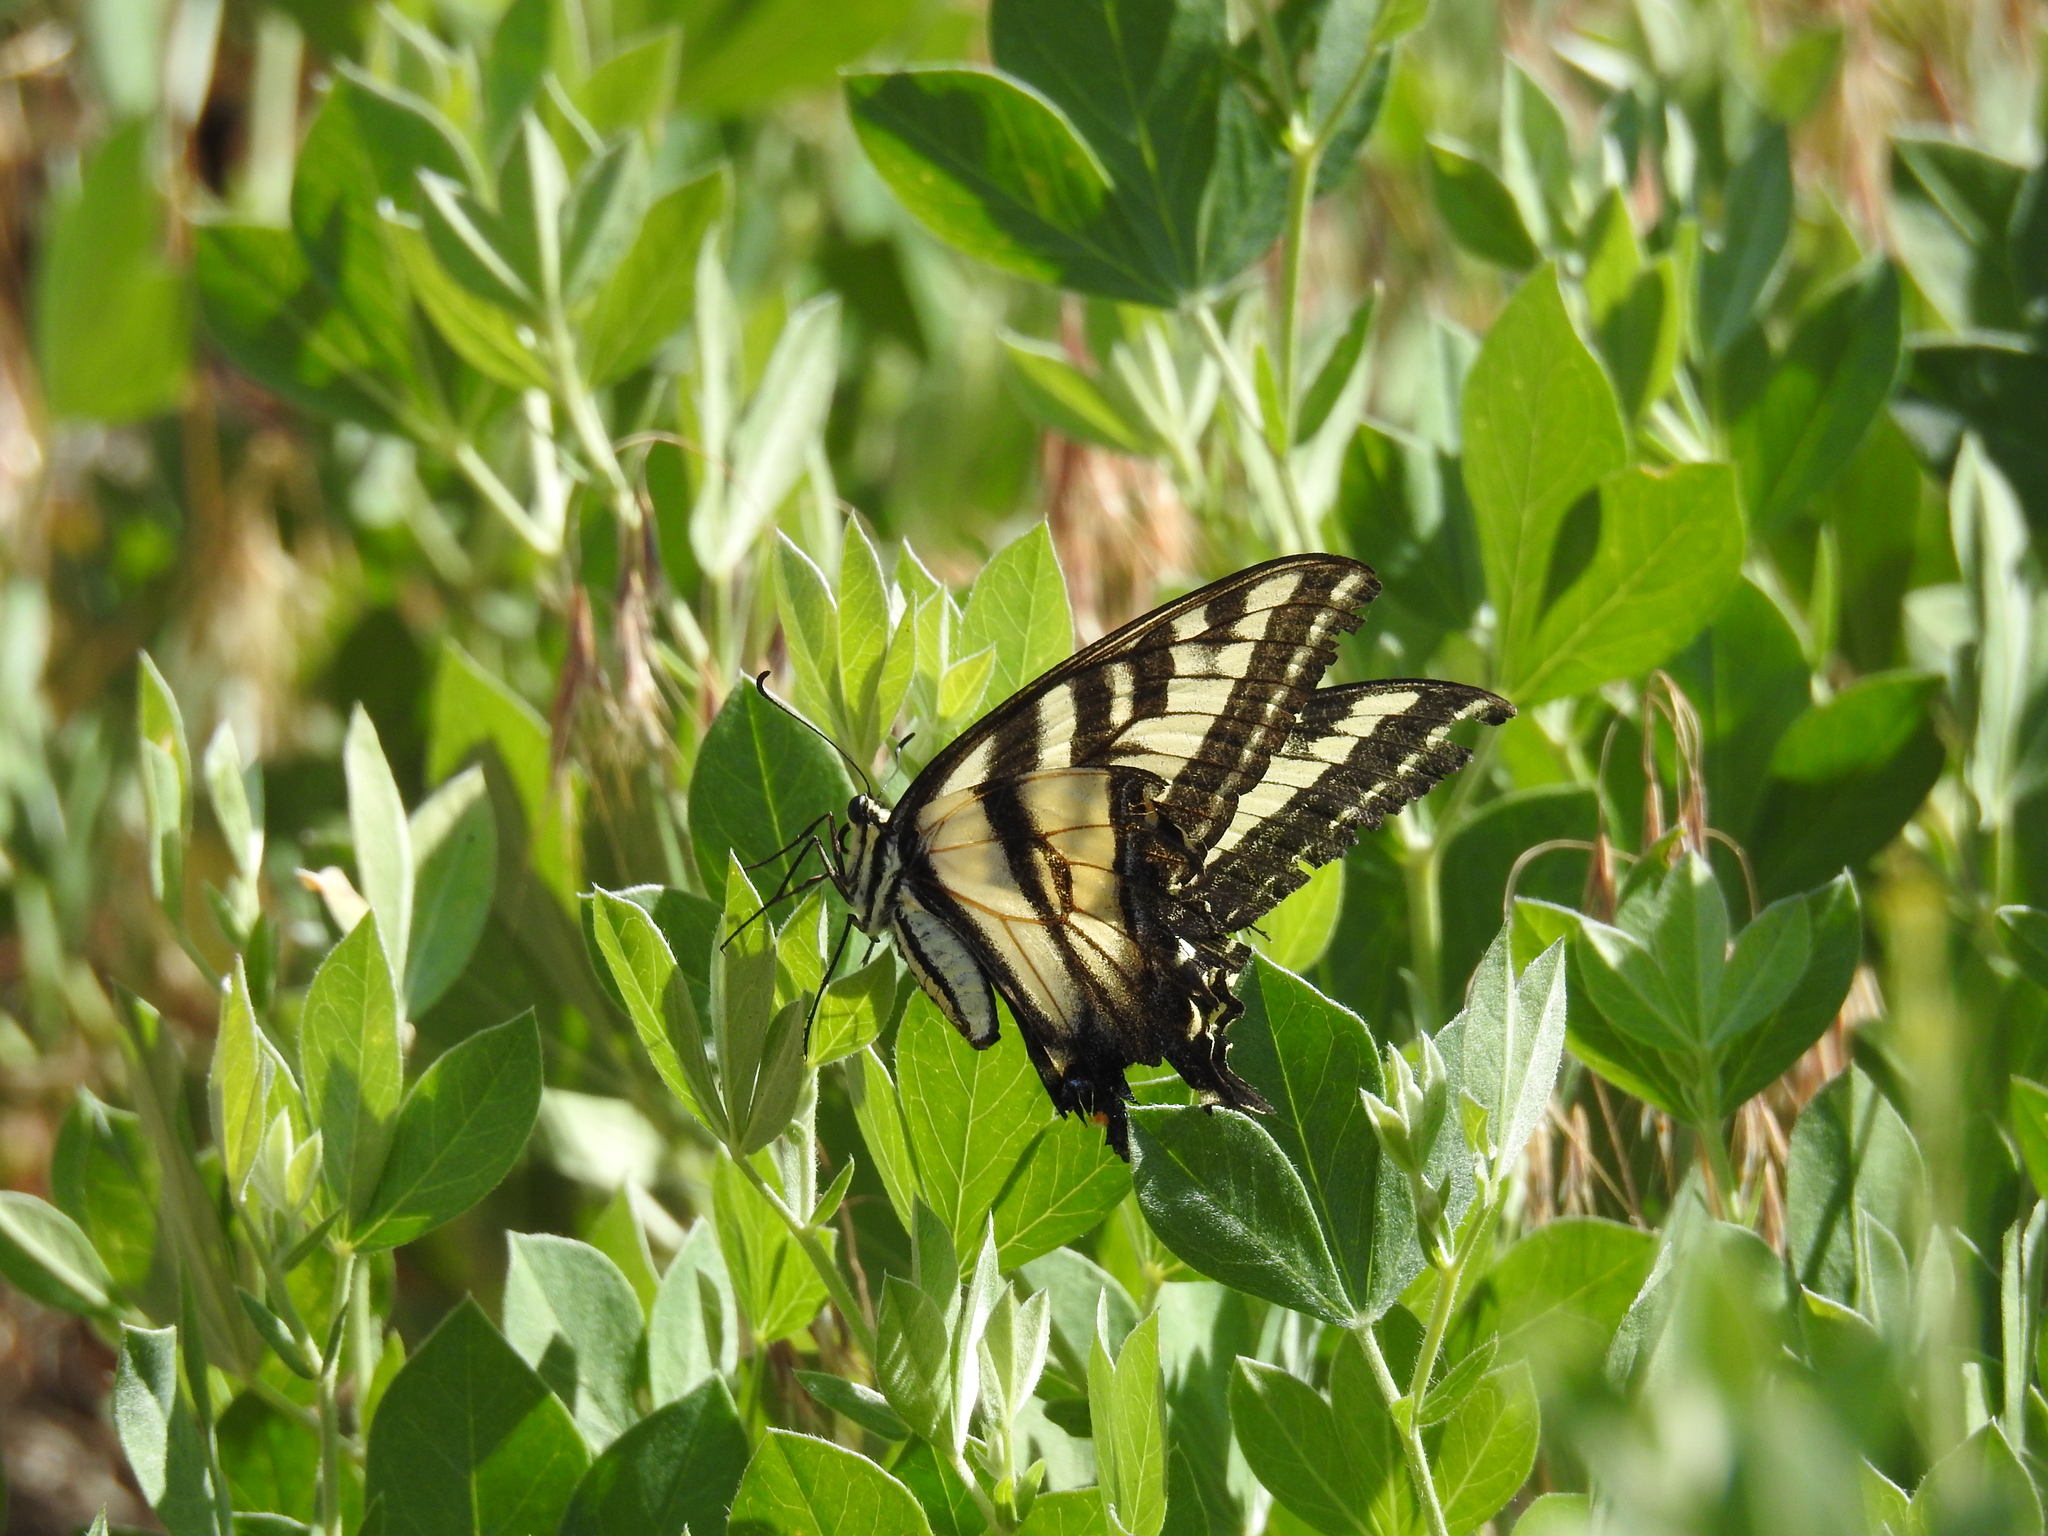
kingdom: Animalia
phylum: Arthropoda
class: Insecta
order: Lepidoptera
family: Papilionidae
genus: Papilio
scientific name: Papilio eurymedon
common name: Pale tiger swallowtail
